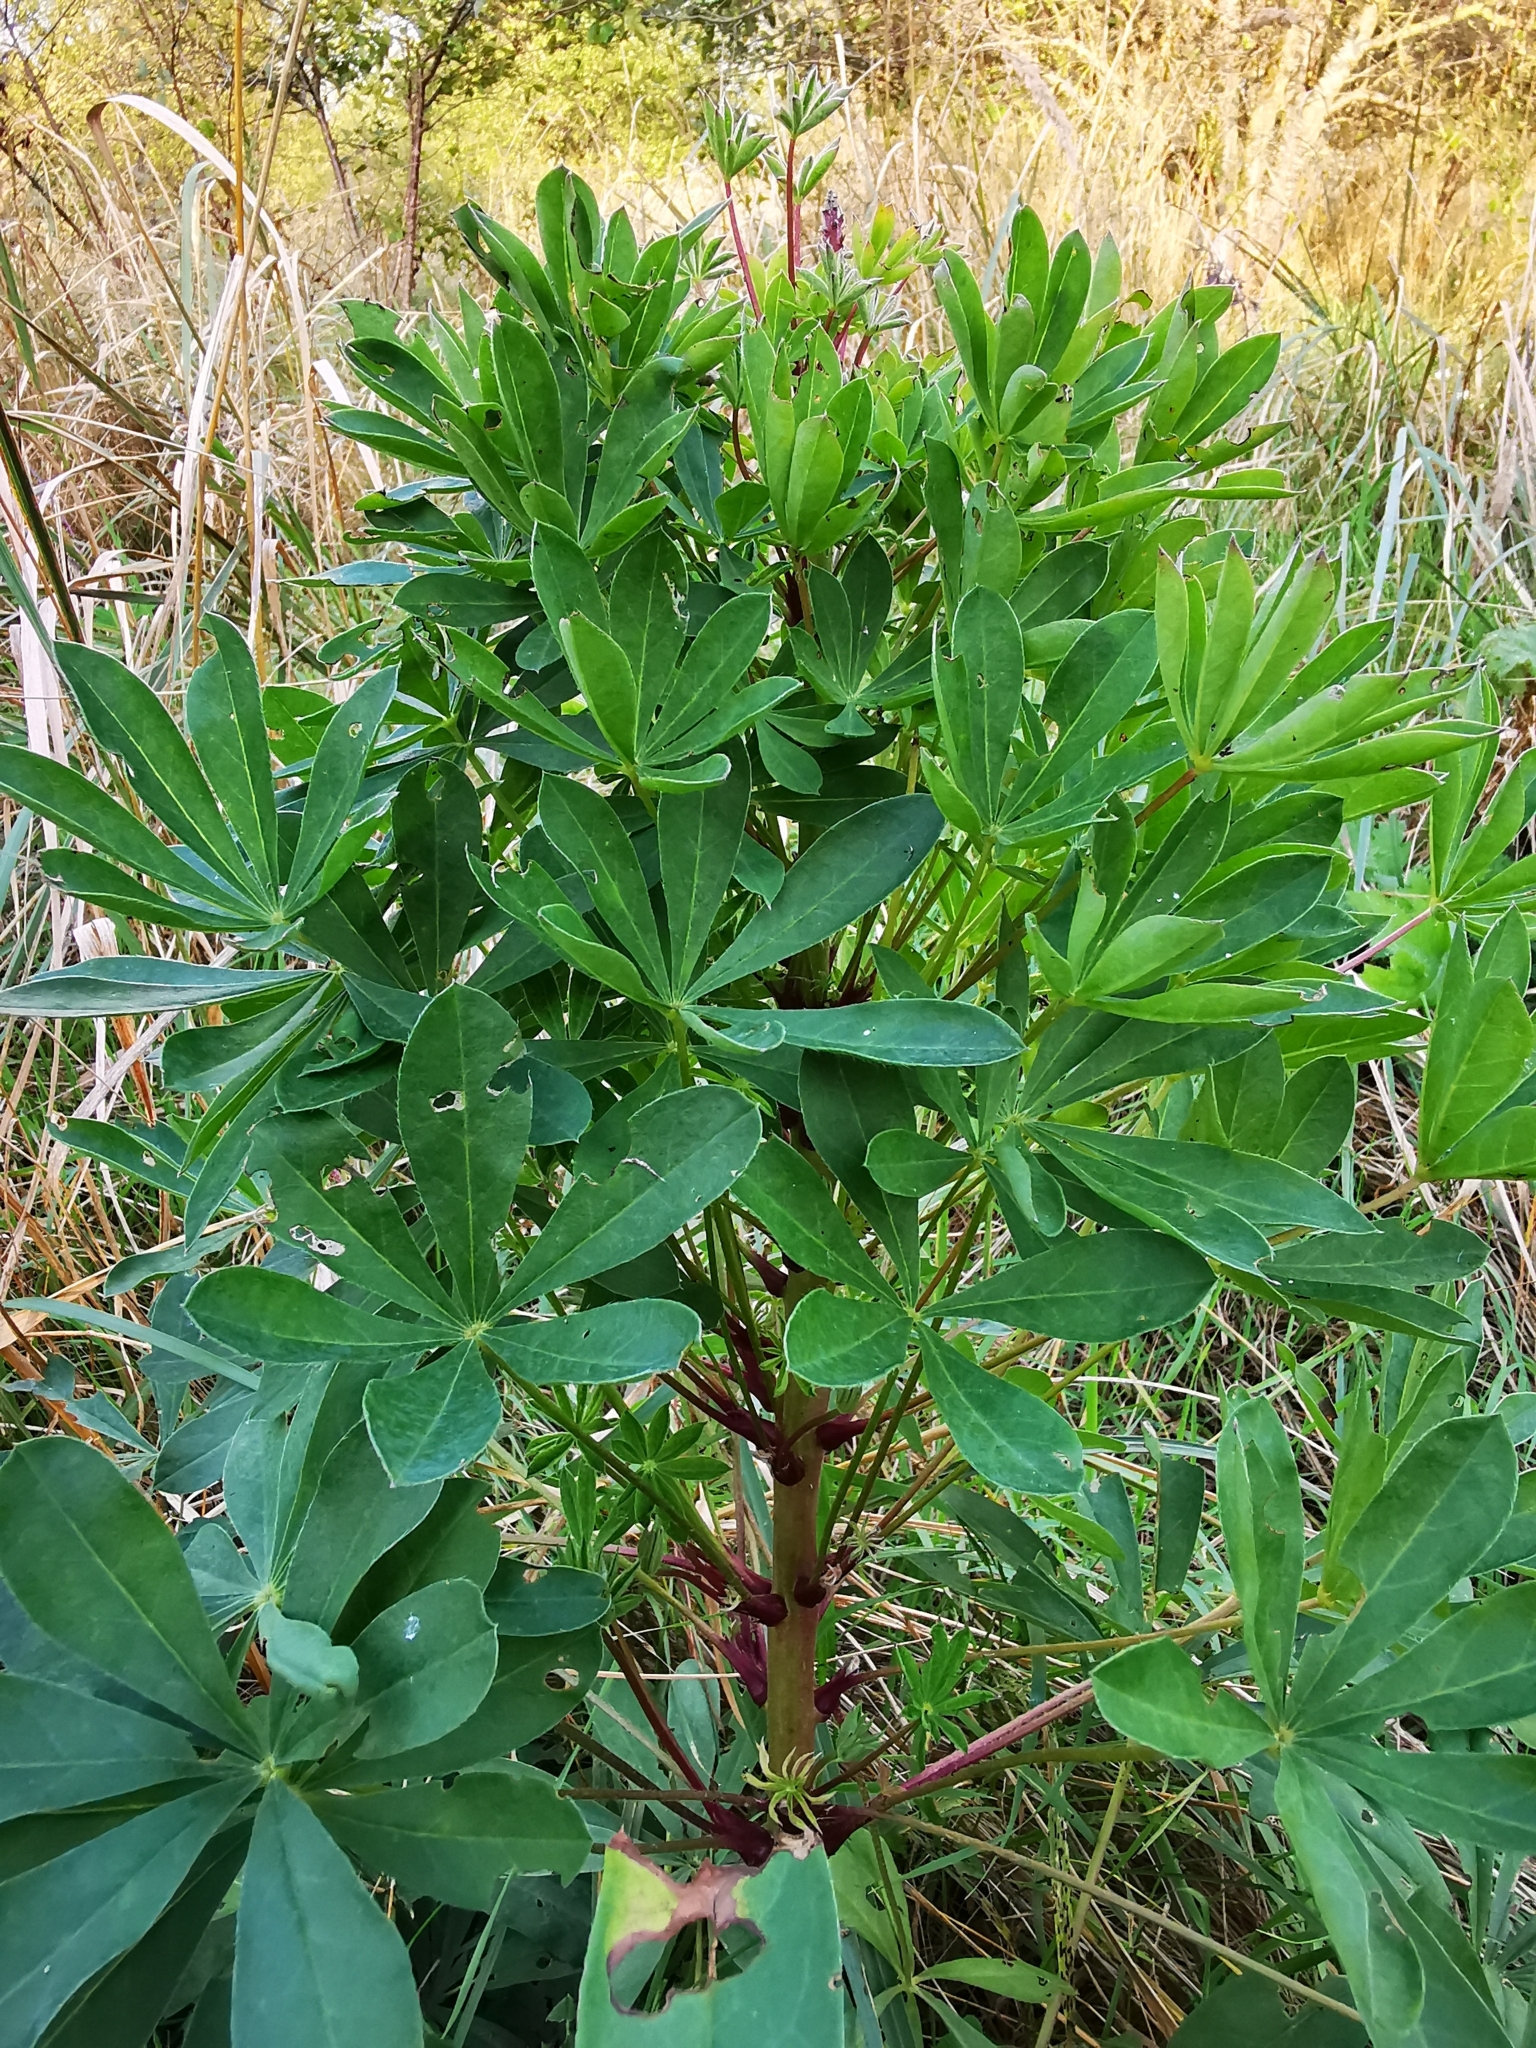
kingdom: Plantae
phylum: Tracheophyta
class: Magnoliopsida
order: Fabales
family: Fabaceae
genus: Lupinus
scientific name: Lupinus polyphyllus
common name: Garden lupin
